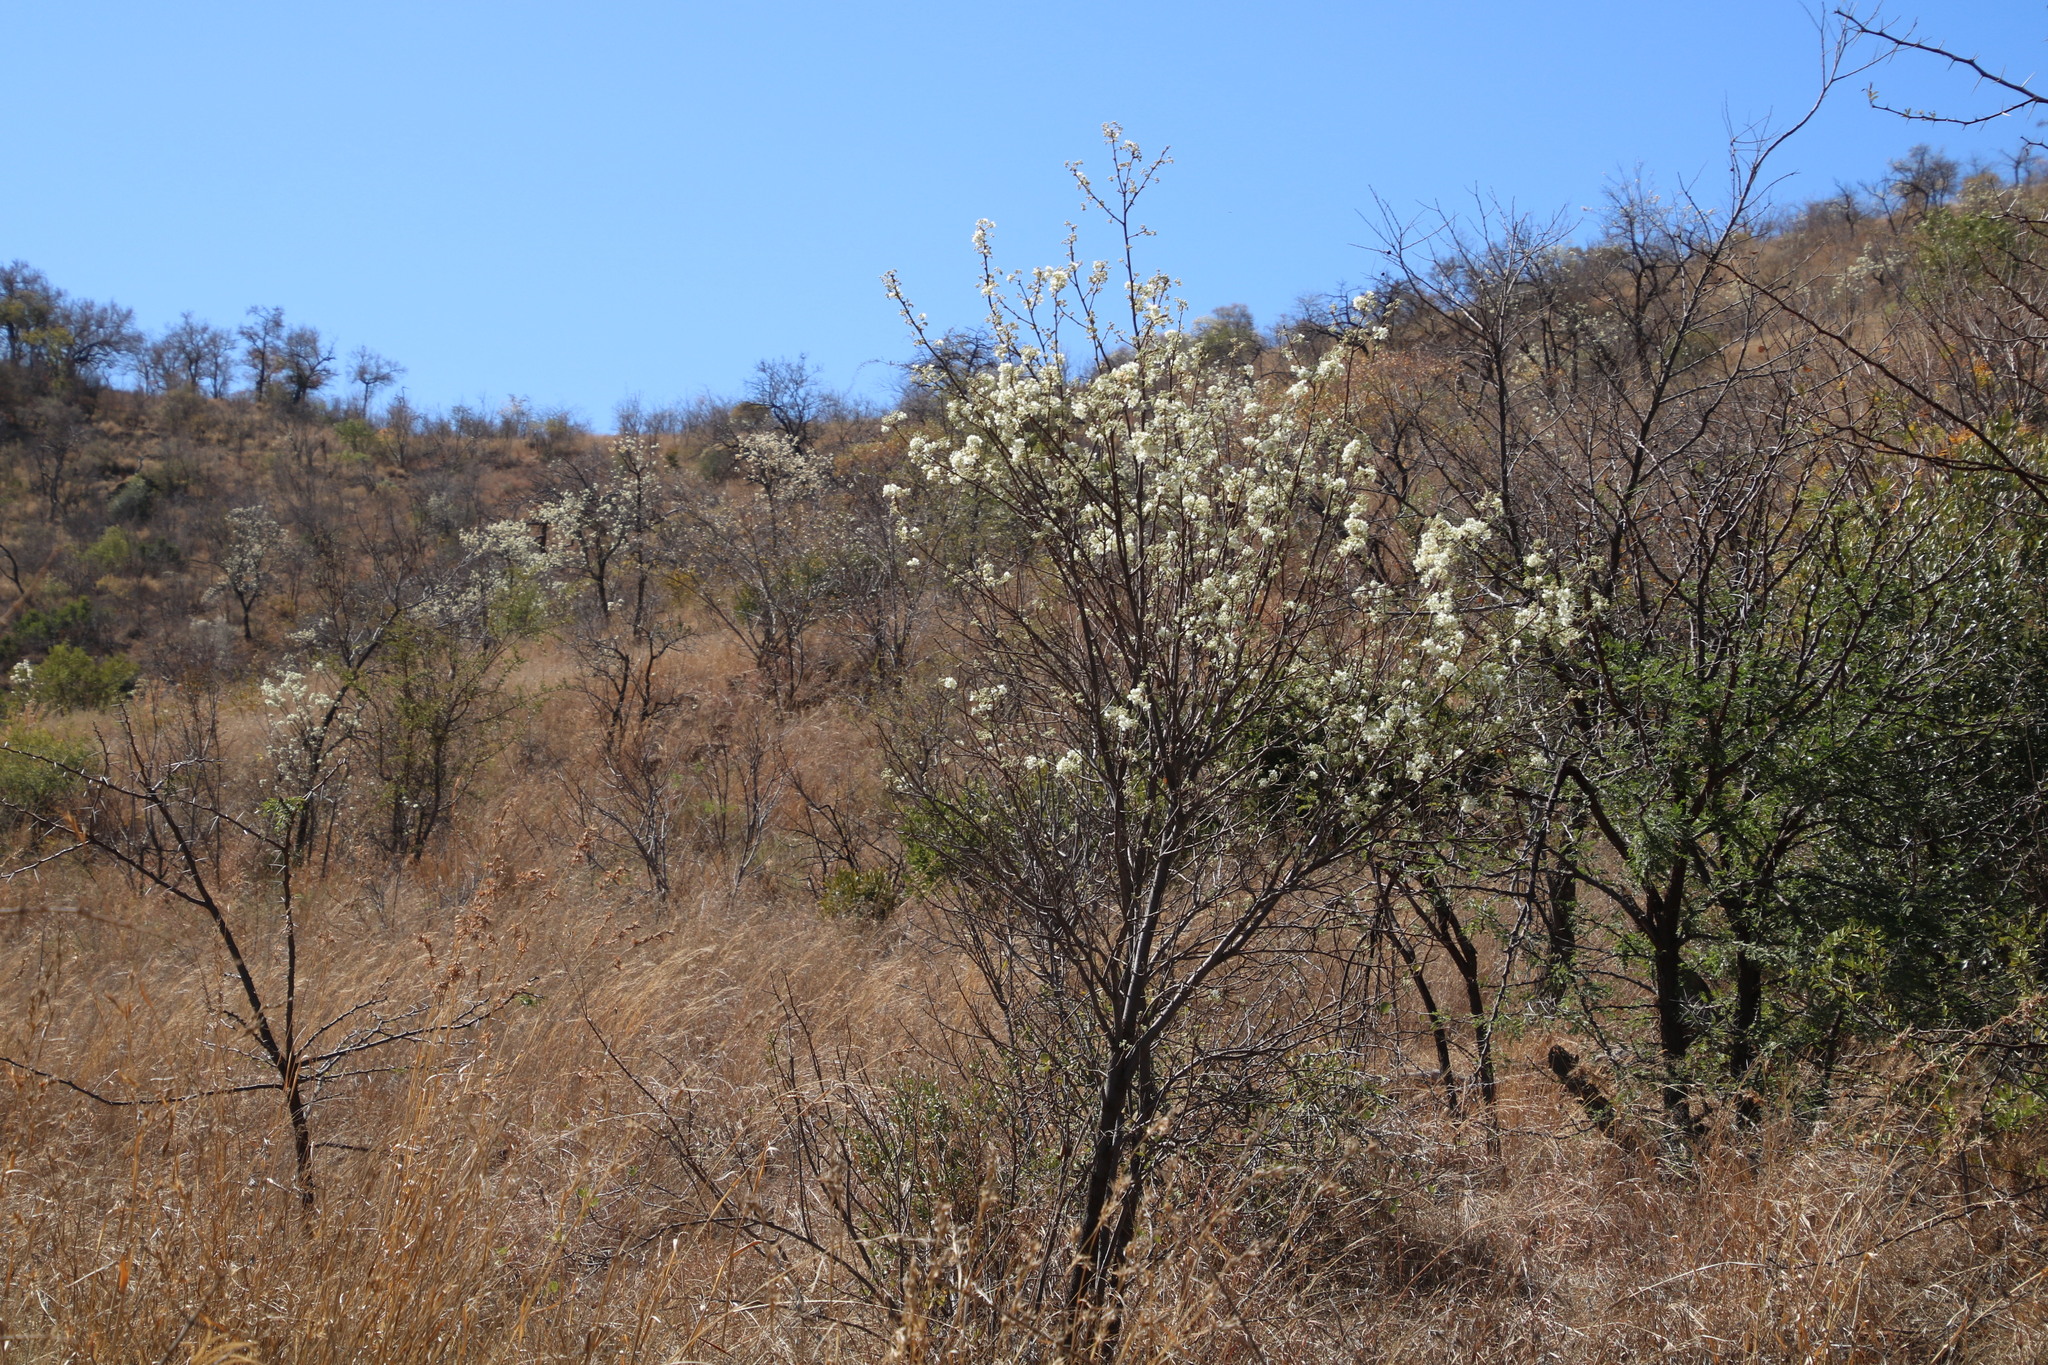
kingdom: Plantae
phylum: Tracheophyta
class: Magnoliopsida
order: Malvales
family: Malvaceae
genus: Dombeya
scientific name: Dombeya rotundifolia
